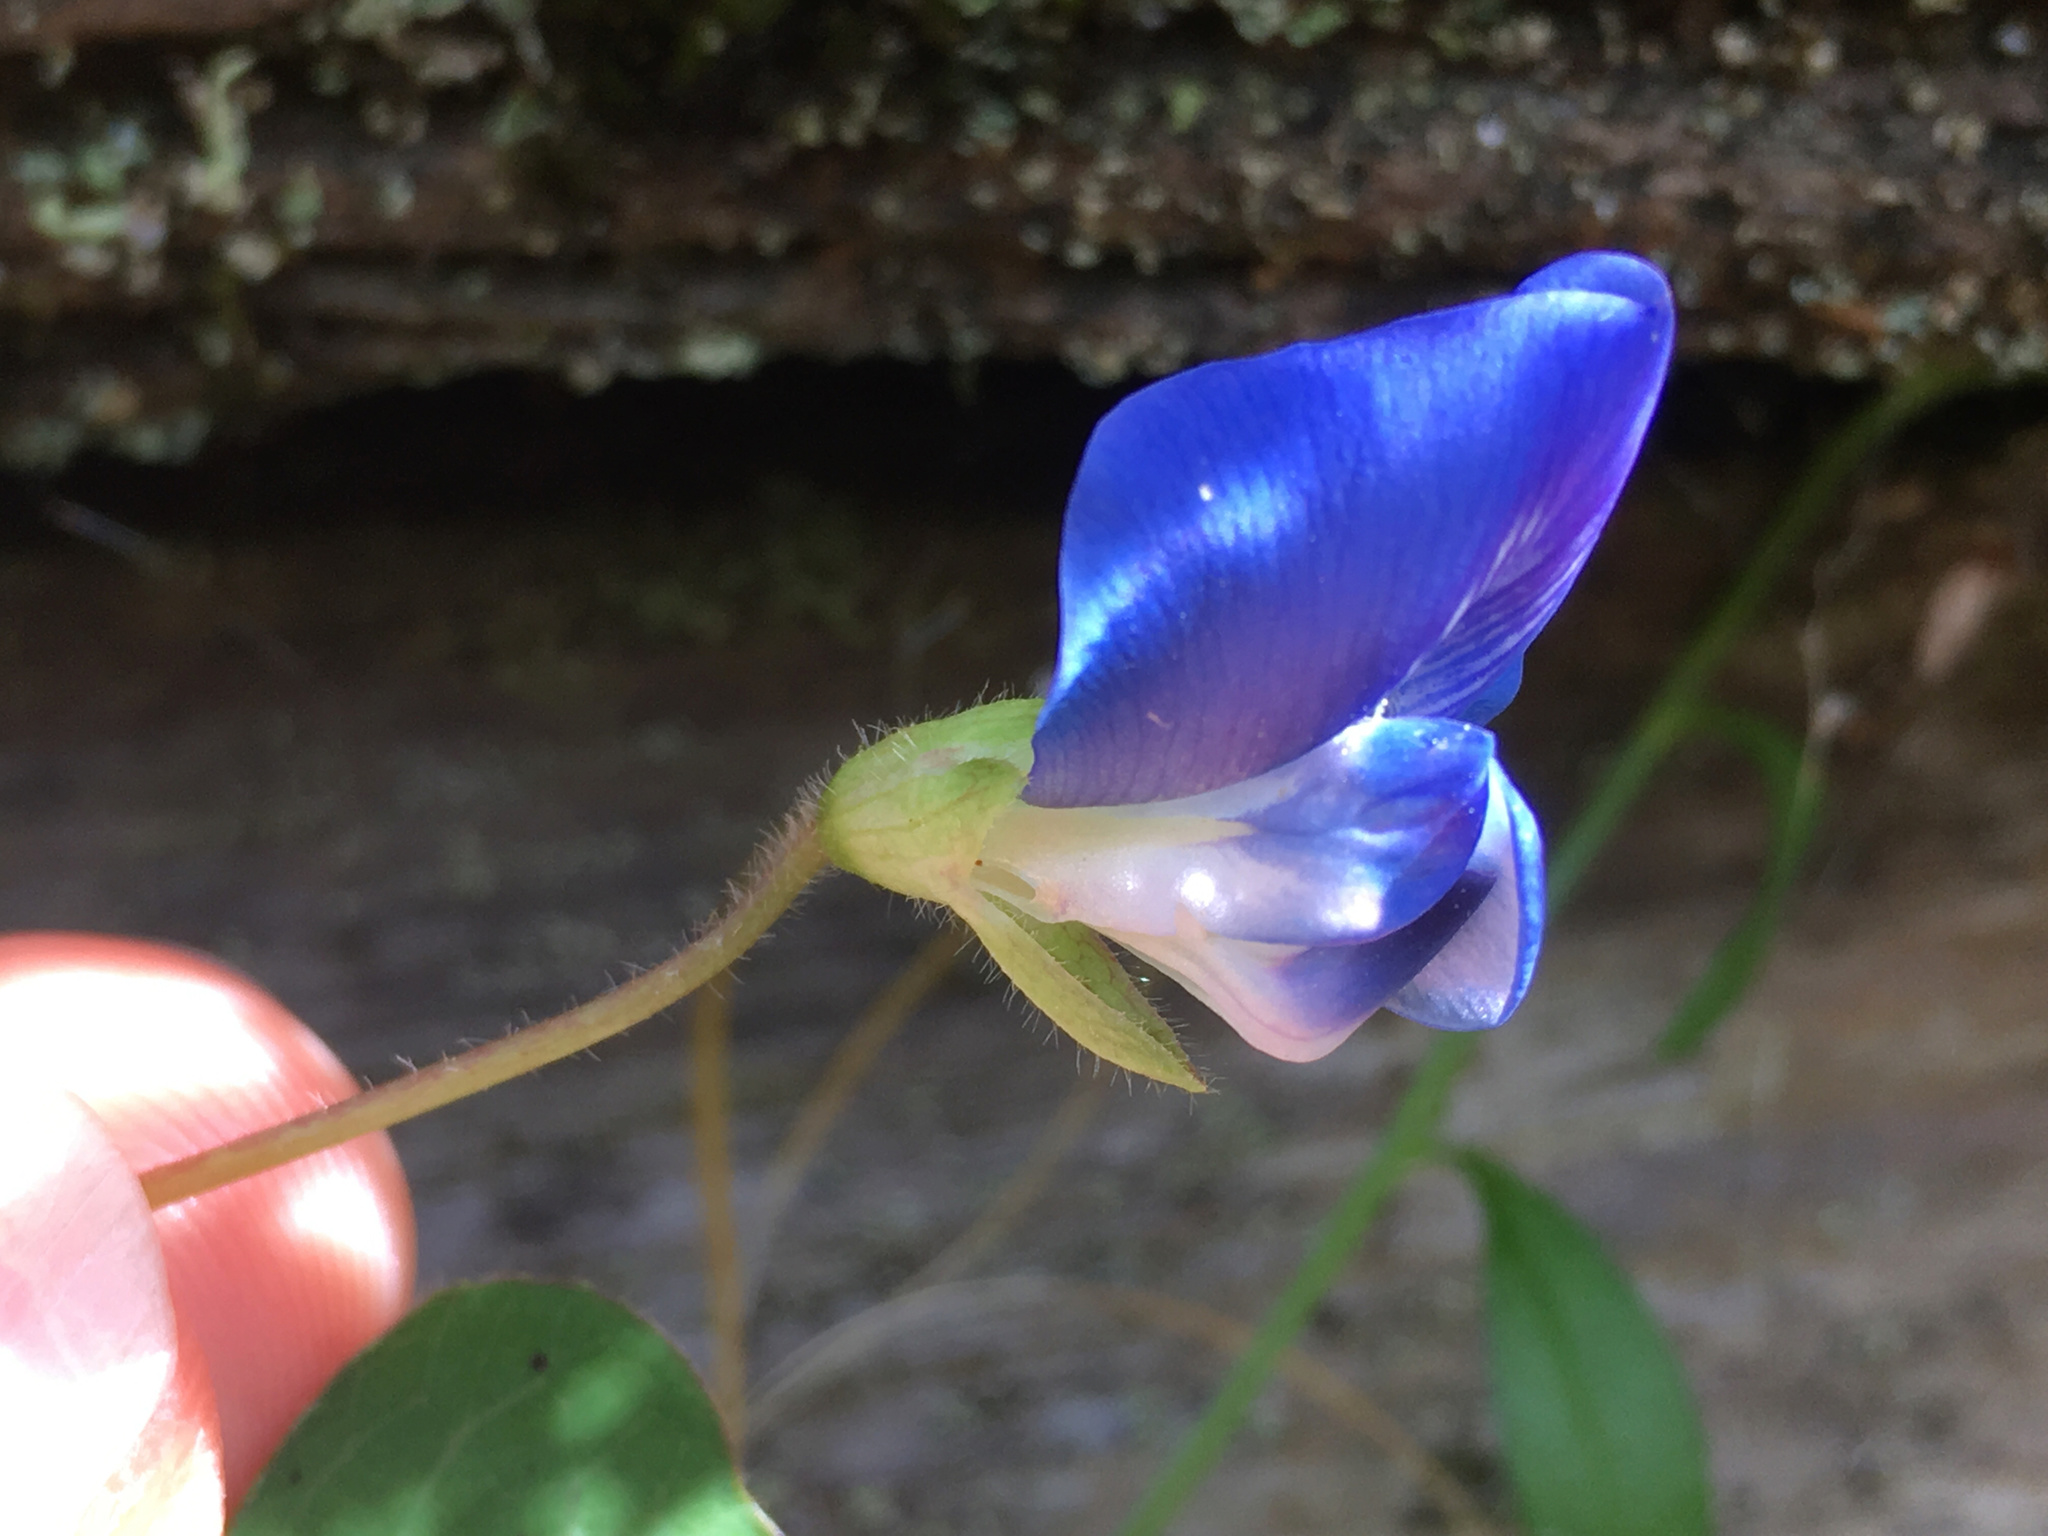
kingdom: Plantae
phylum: Tracheophyta
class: Magnoliopsida
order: Fabales
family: Fabaceae
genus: Parochetus
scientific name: Parochetus communis
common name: Blue oxalis
